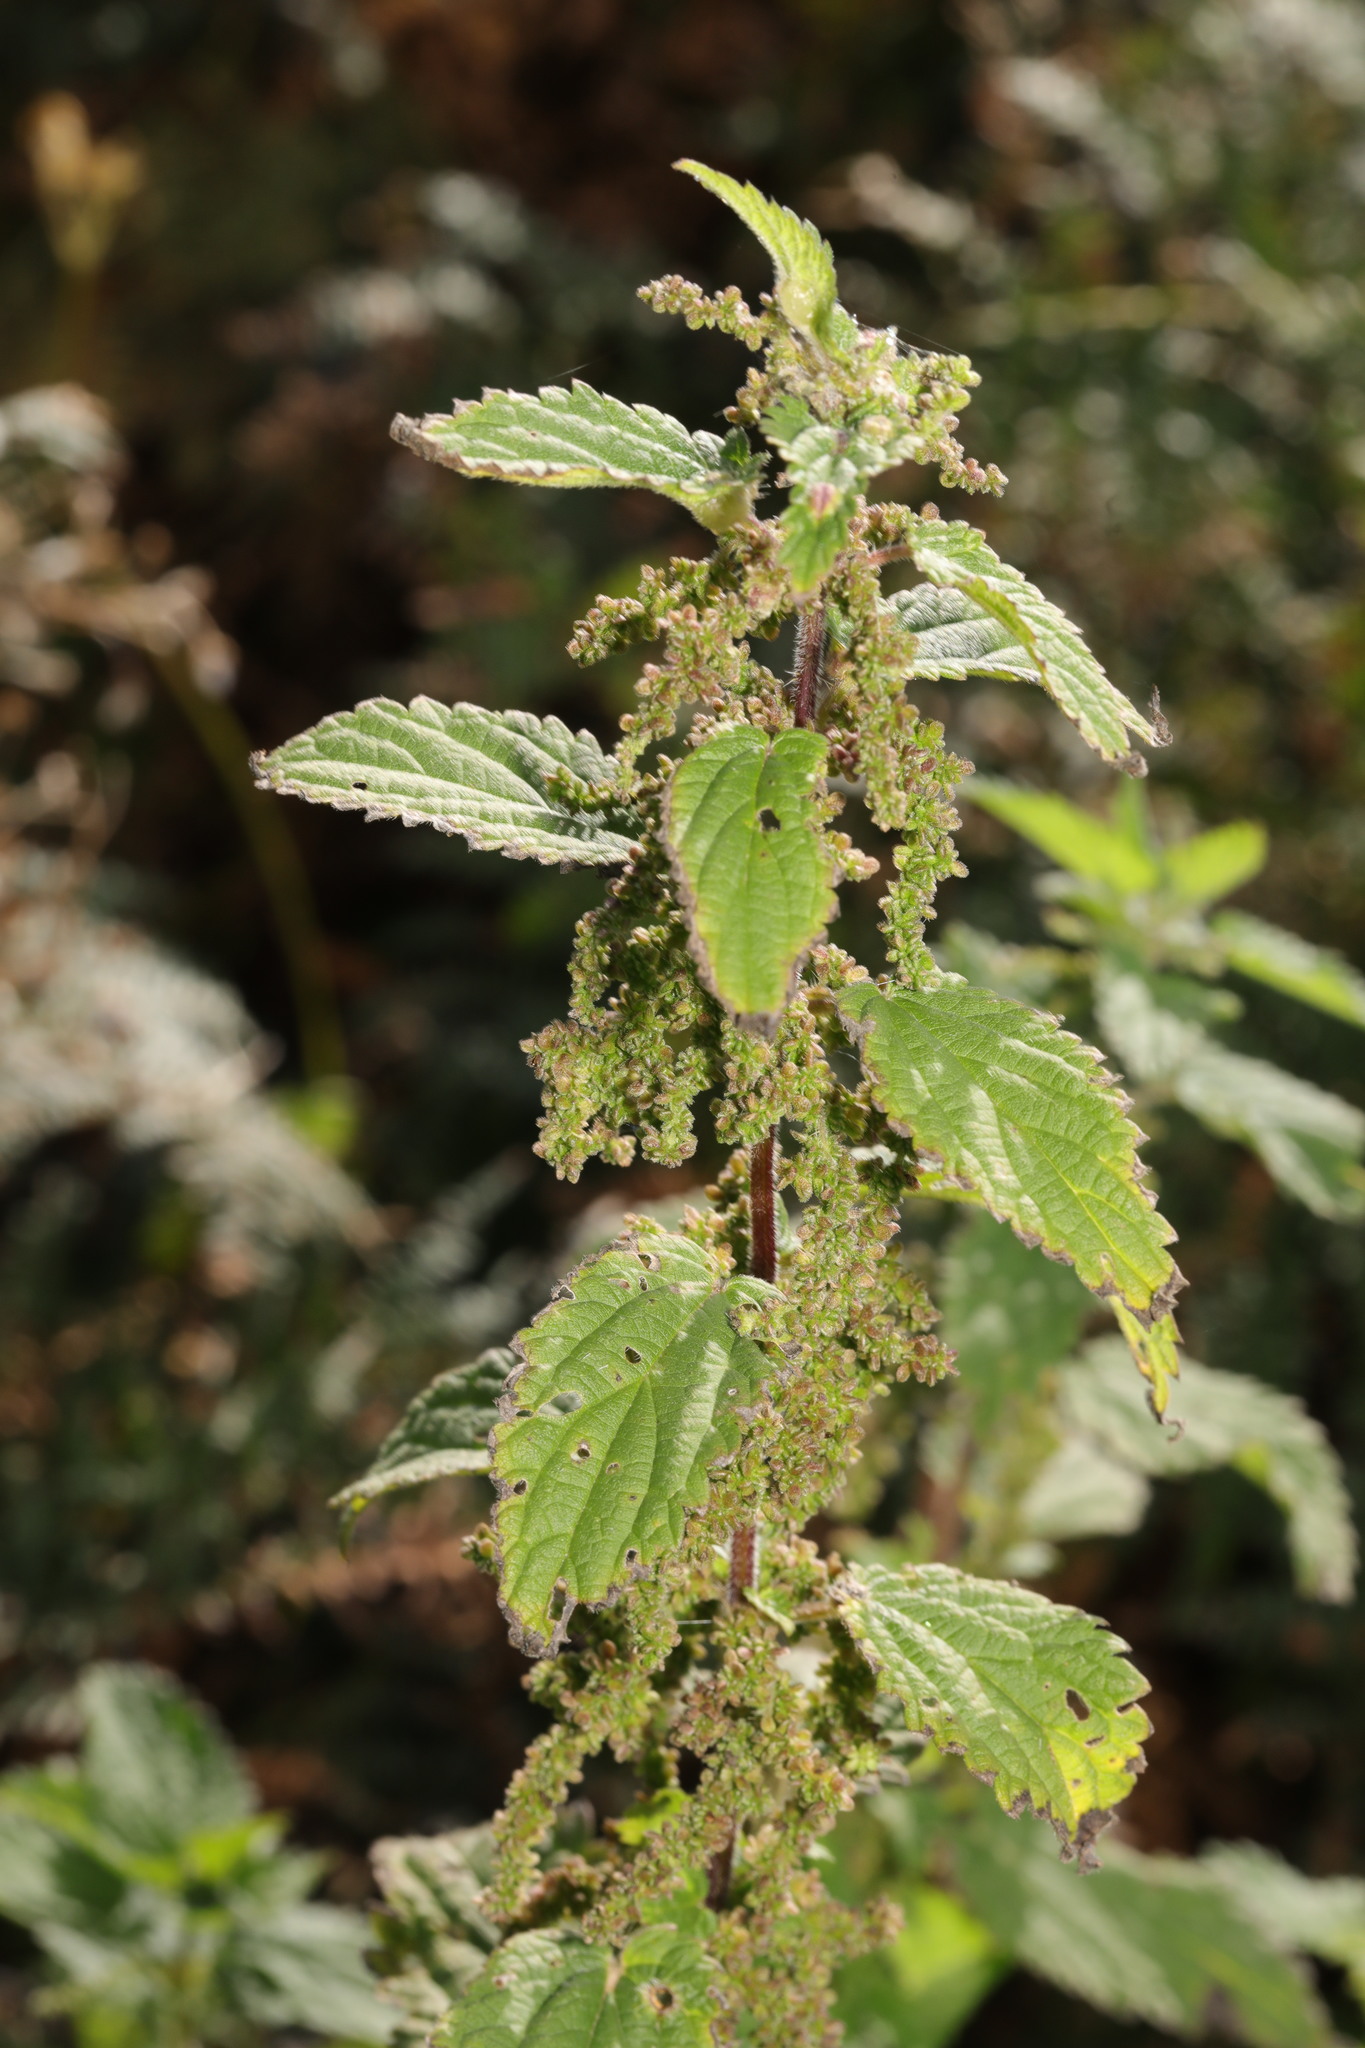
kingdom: Plantae
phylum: Tracheophyta
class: Magnoliopsida
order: Rosales
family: Urticaceae
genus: Urtica
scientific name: Urtica dioica
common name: Common nettle
